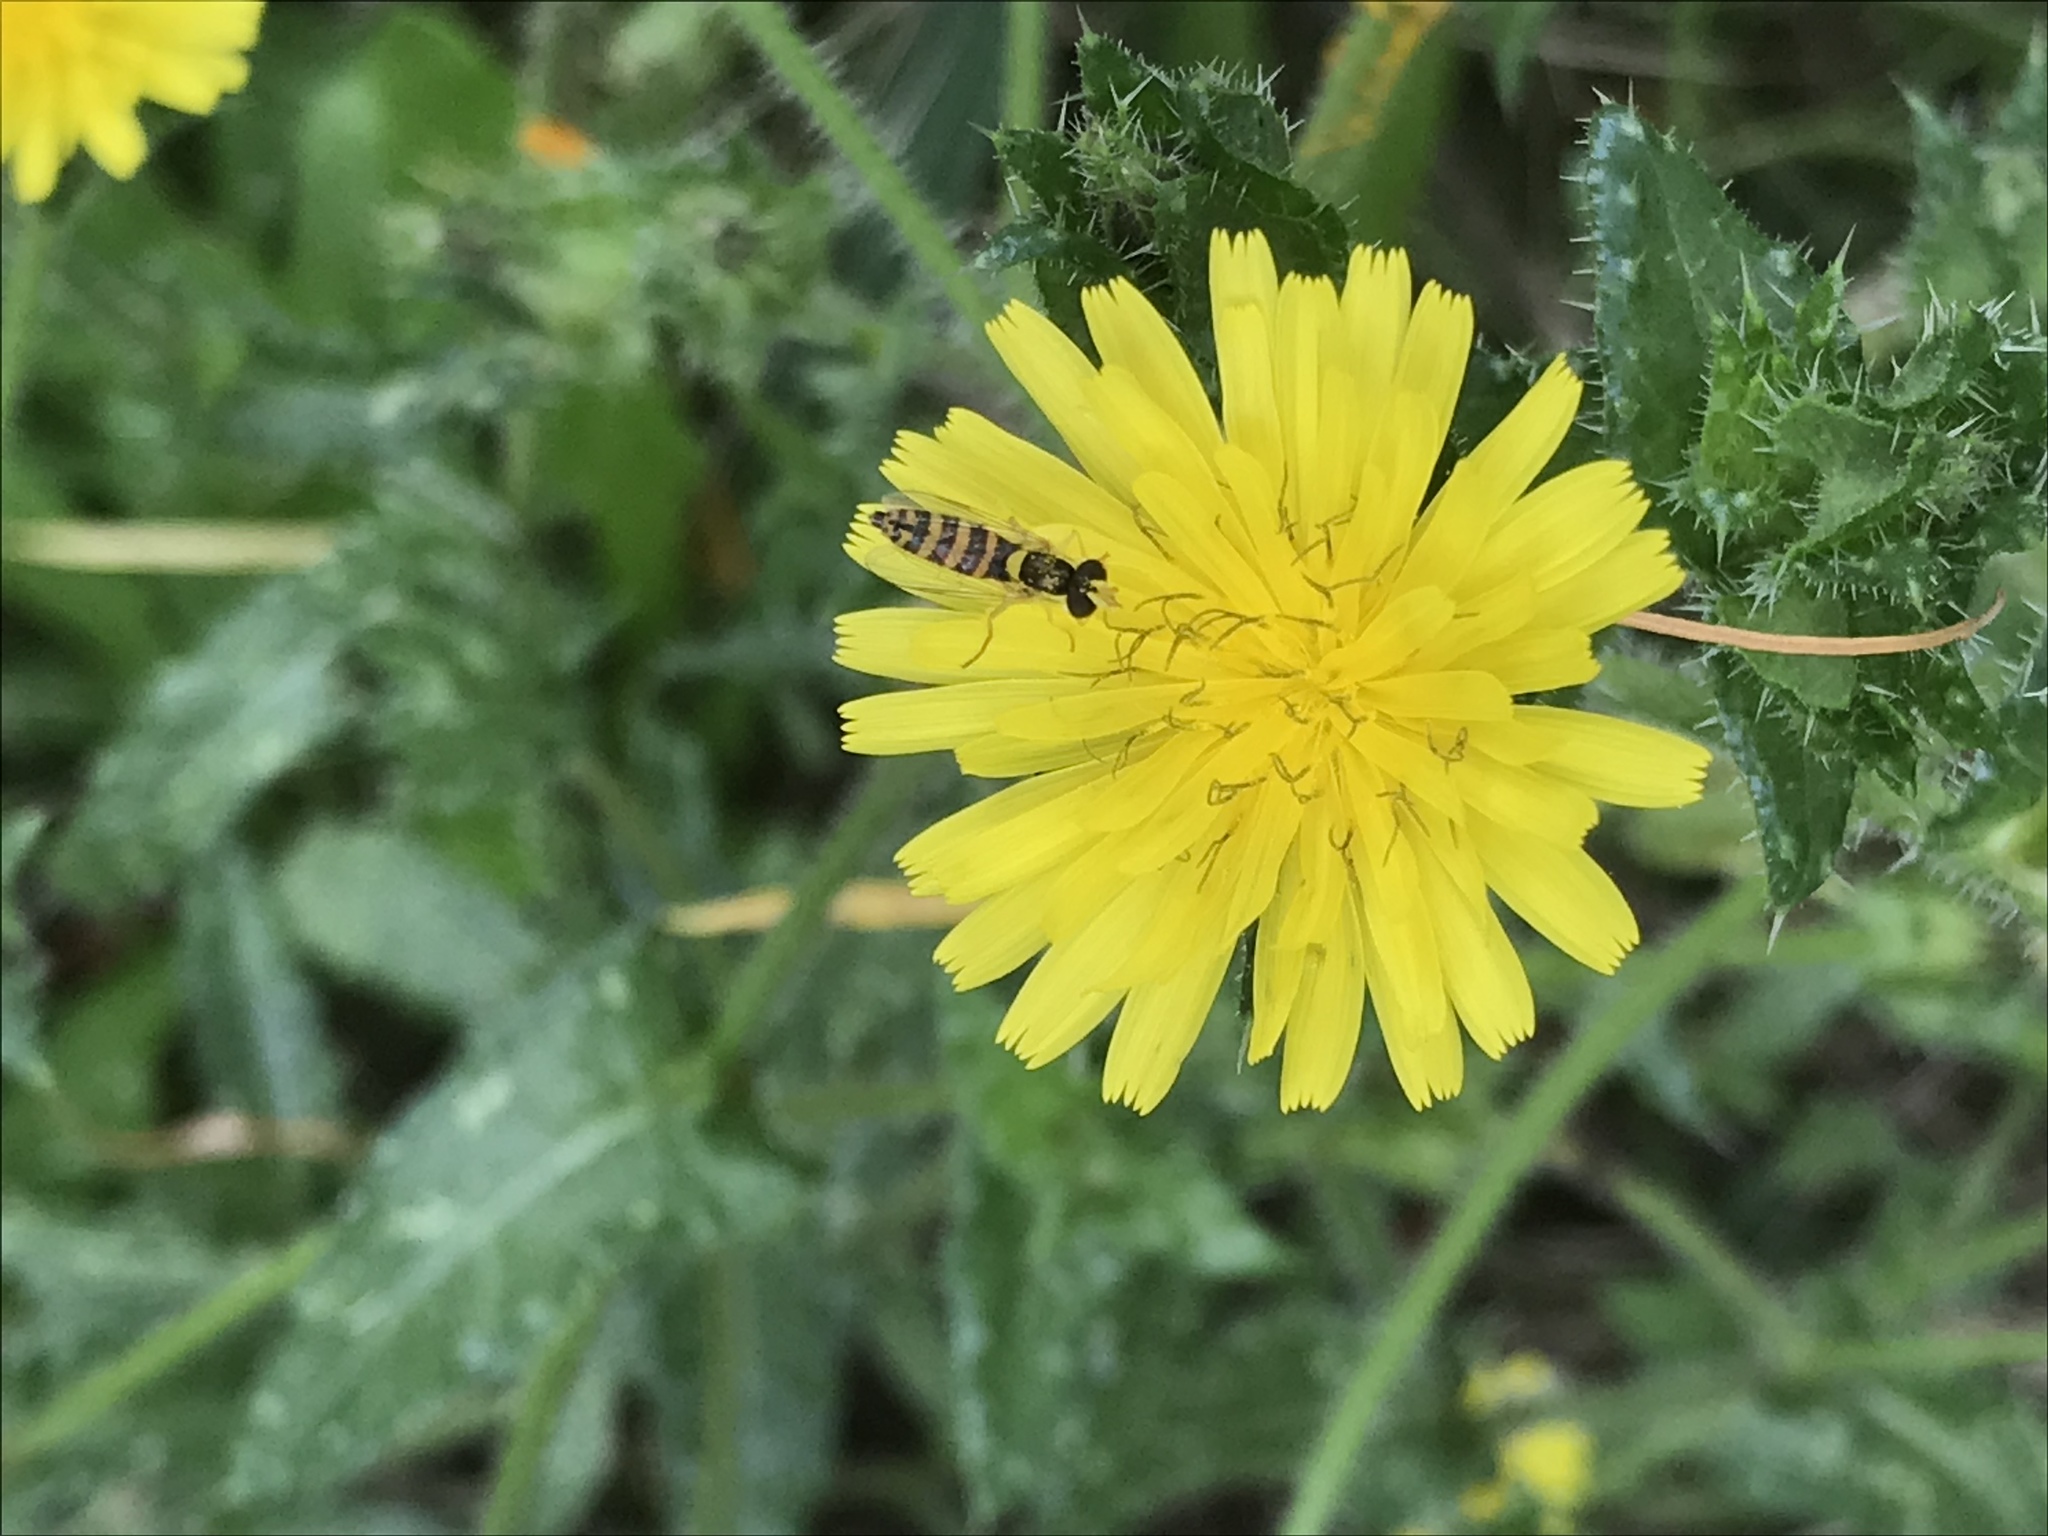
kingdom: Animalia
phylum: Arthropoda
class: Insecta
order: Diptera
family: Syrphidae
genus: Sphaerophoria
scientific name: Sphaerophoria
